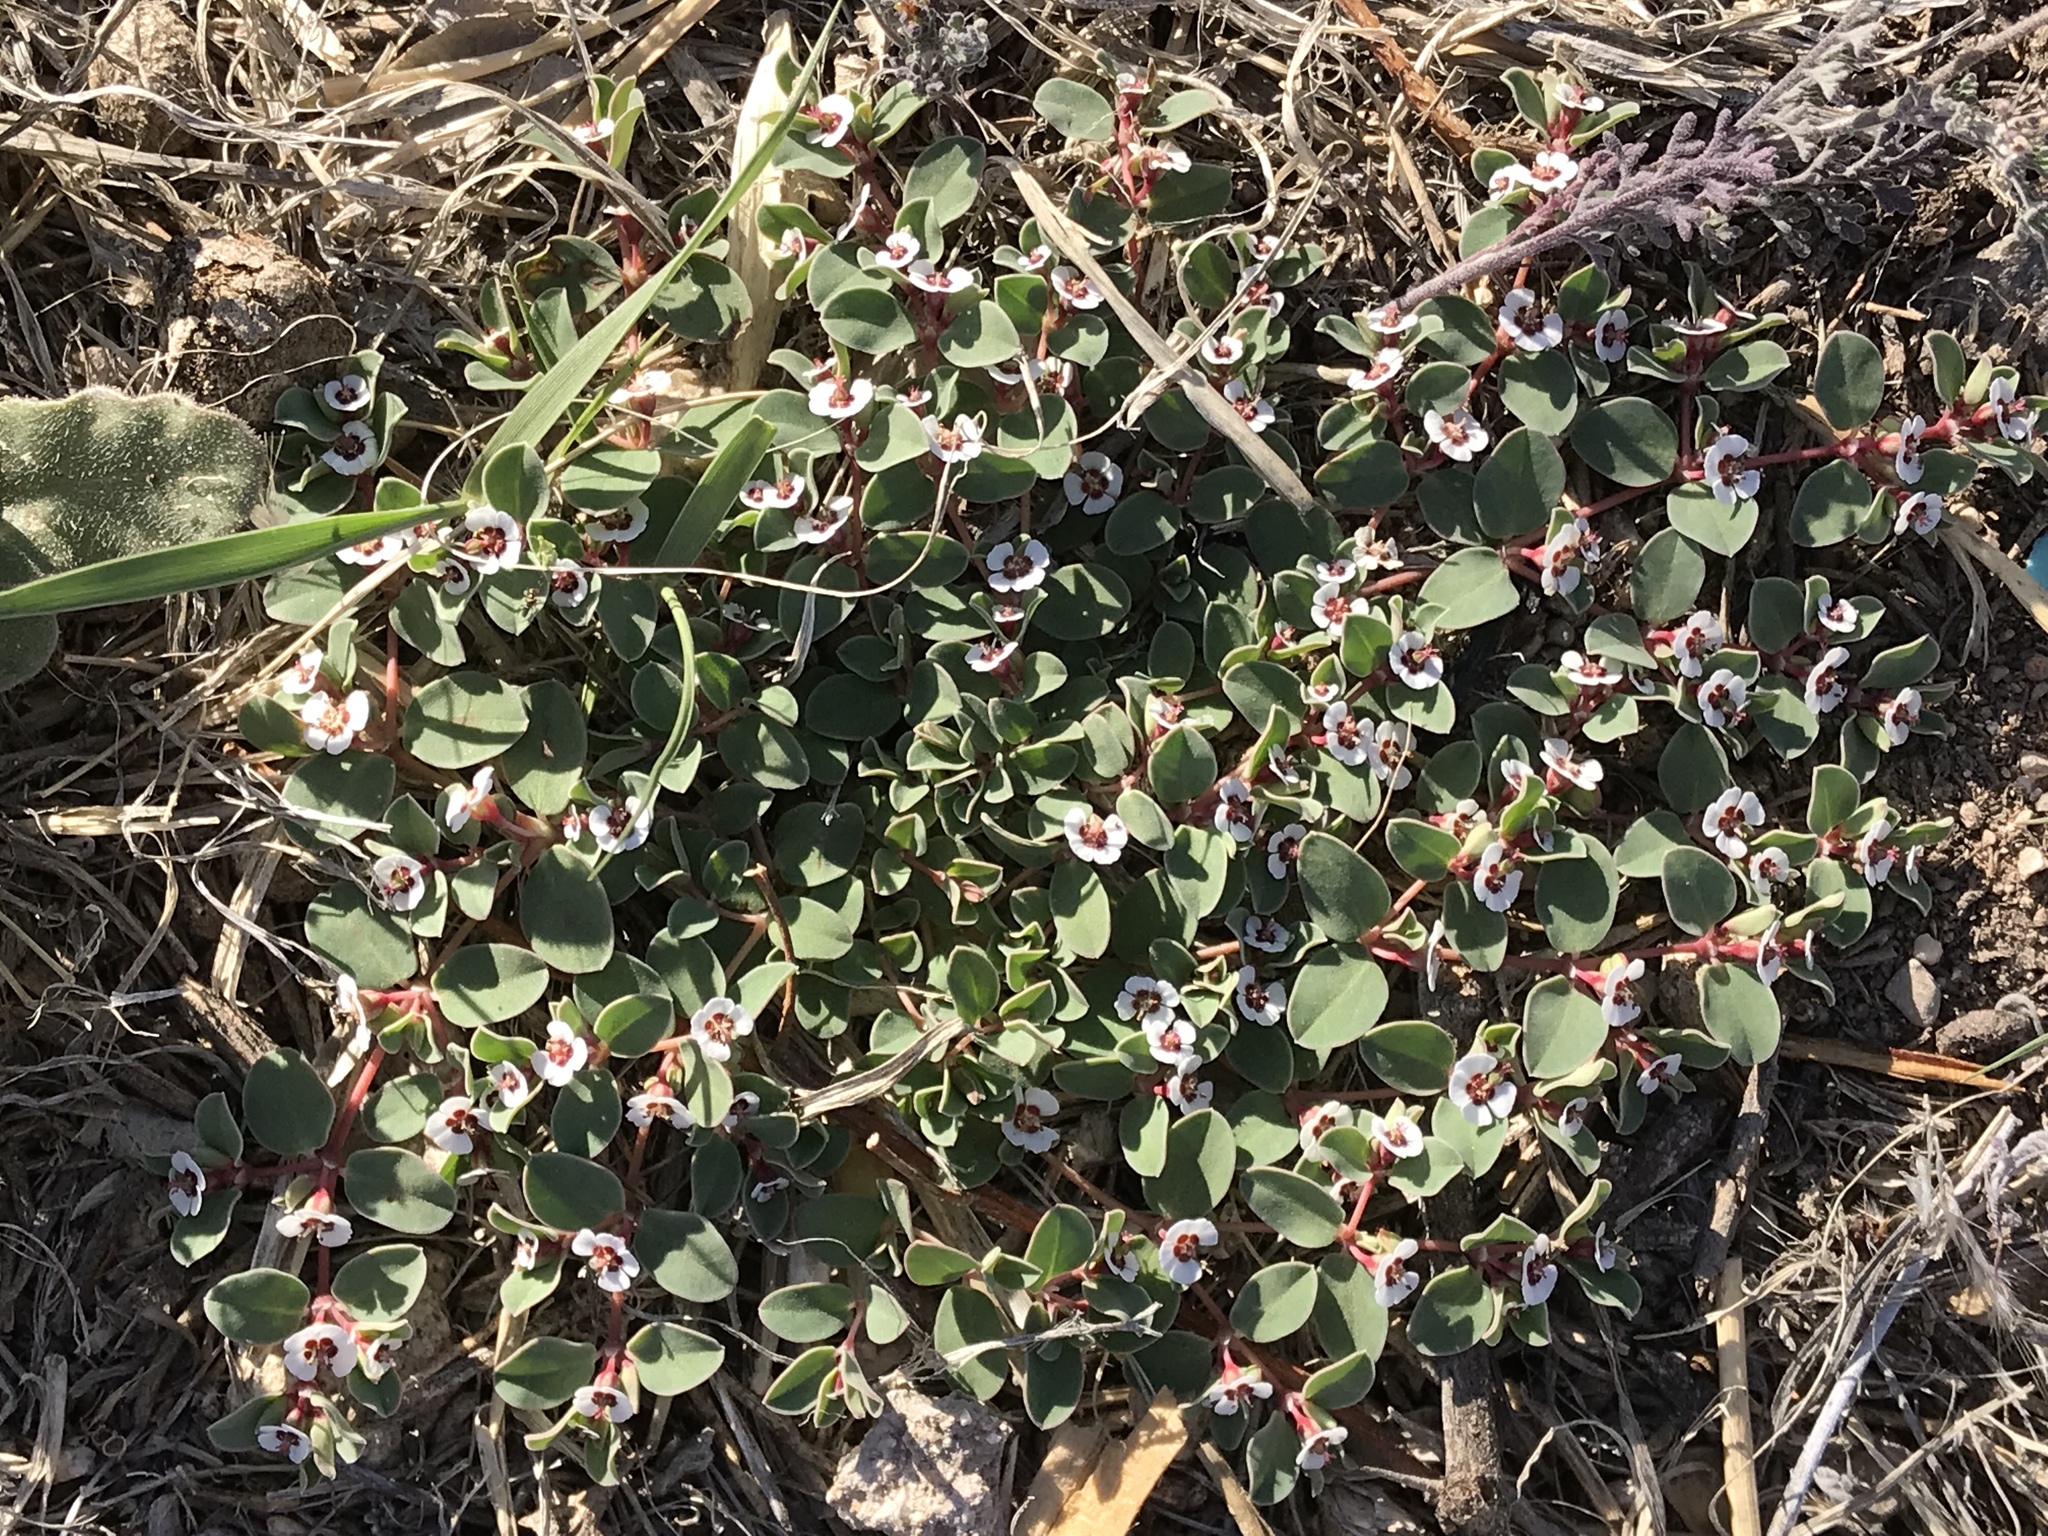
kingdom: Plantae
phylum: Tracheophyta
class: Magnoliopsida
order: Malpighiales
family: Euphorbiaceae
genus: Euphorbia
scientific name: Euphorbia albomarginata
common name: Whitemargin sandmat
